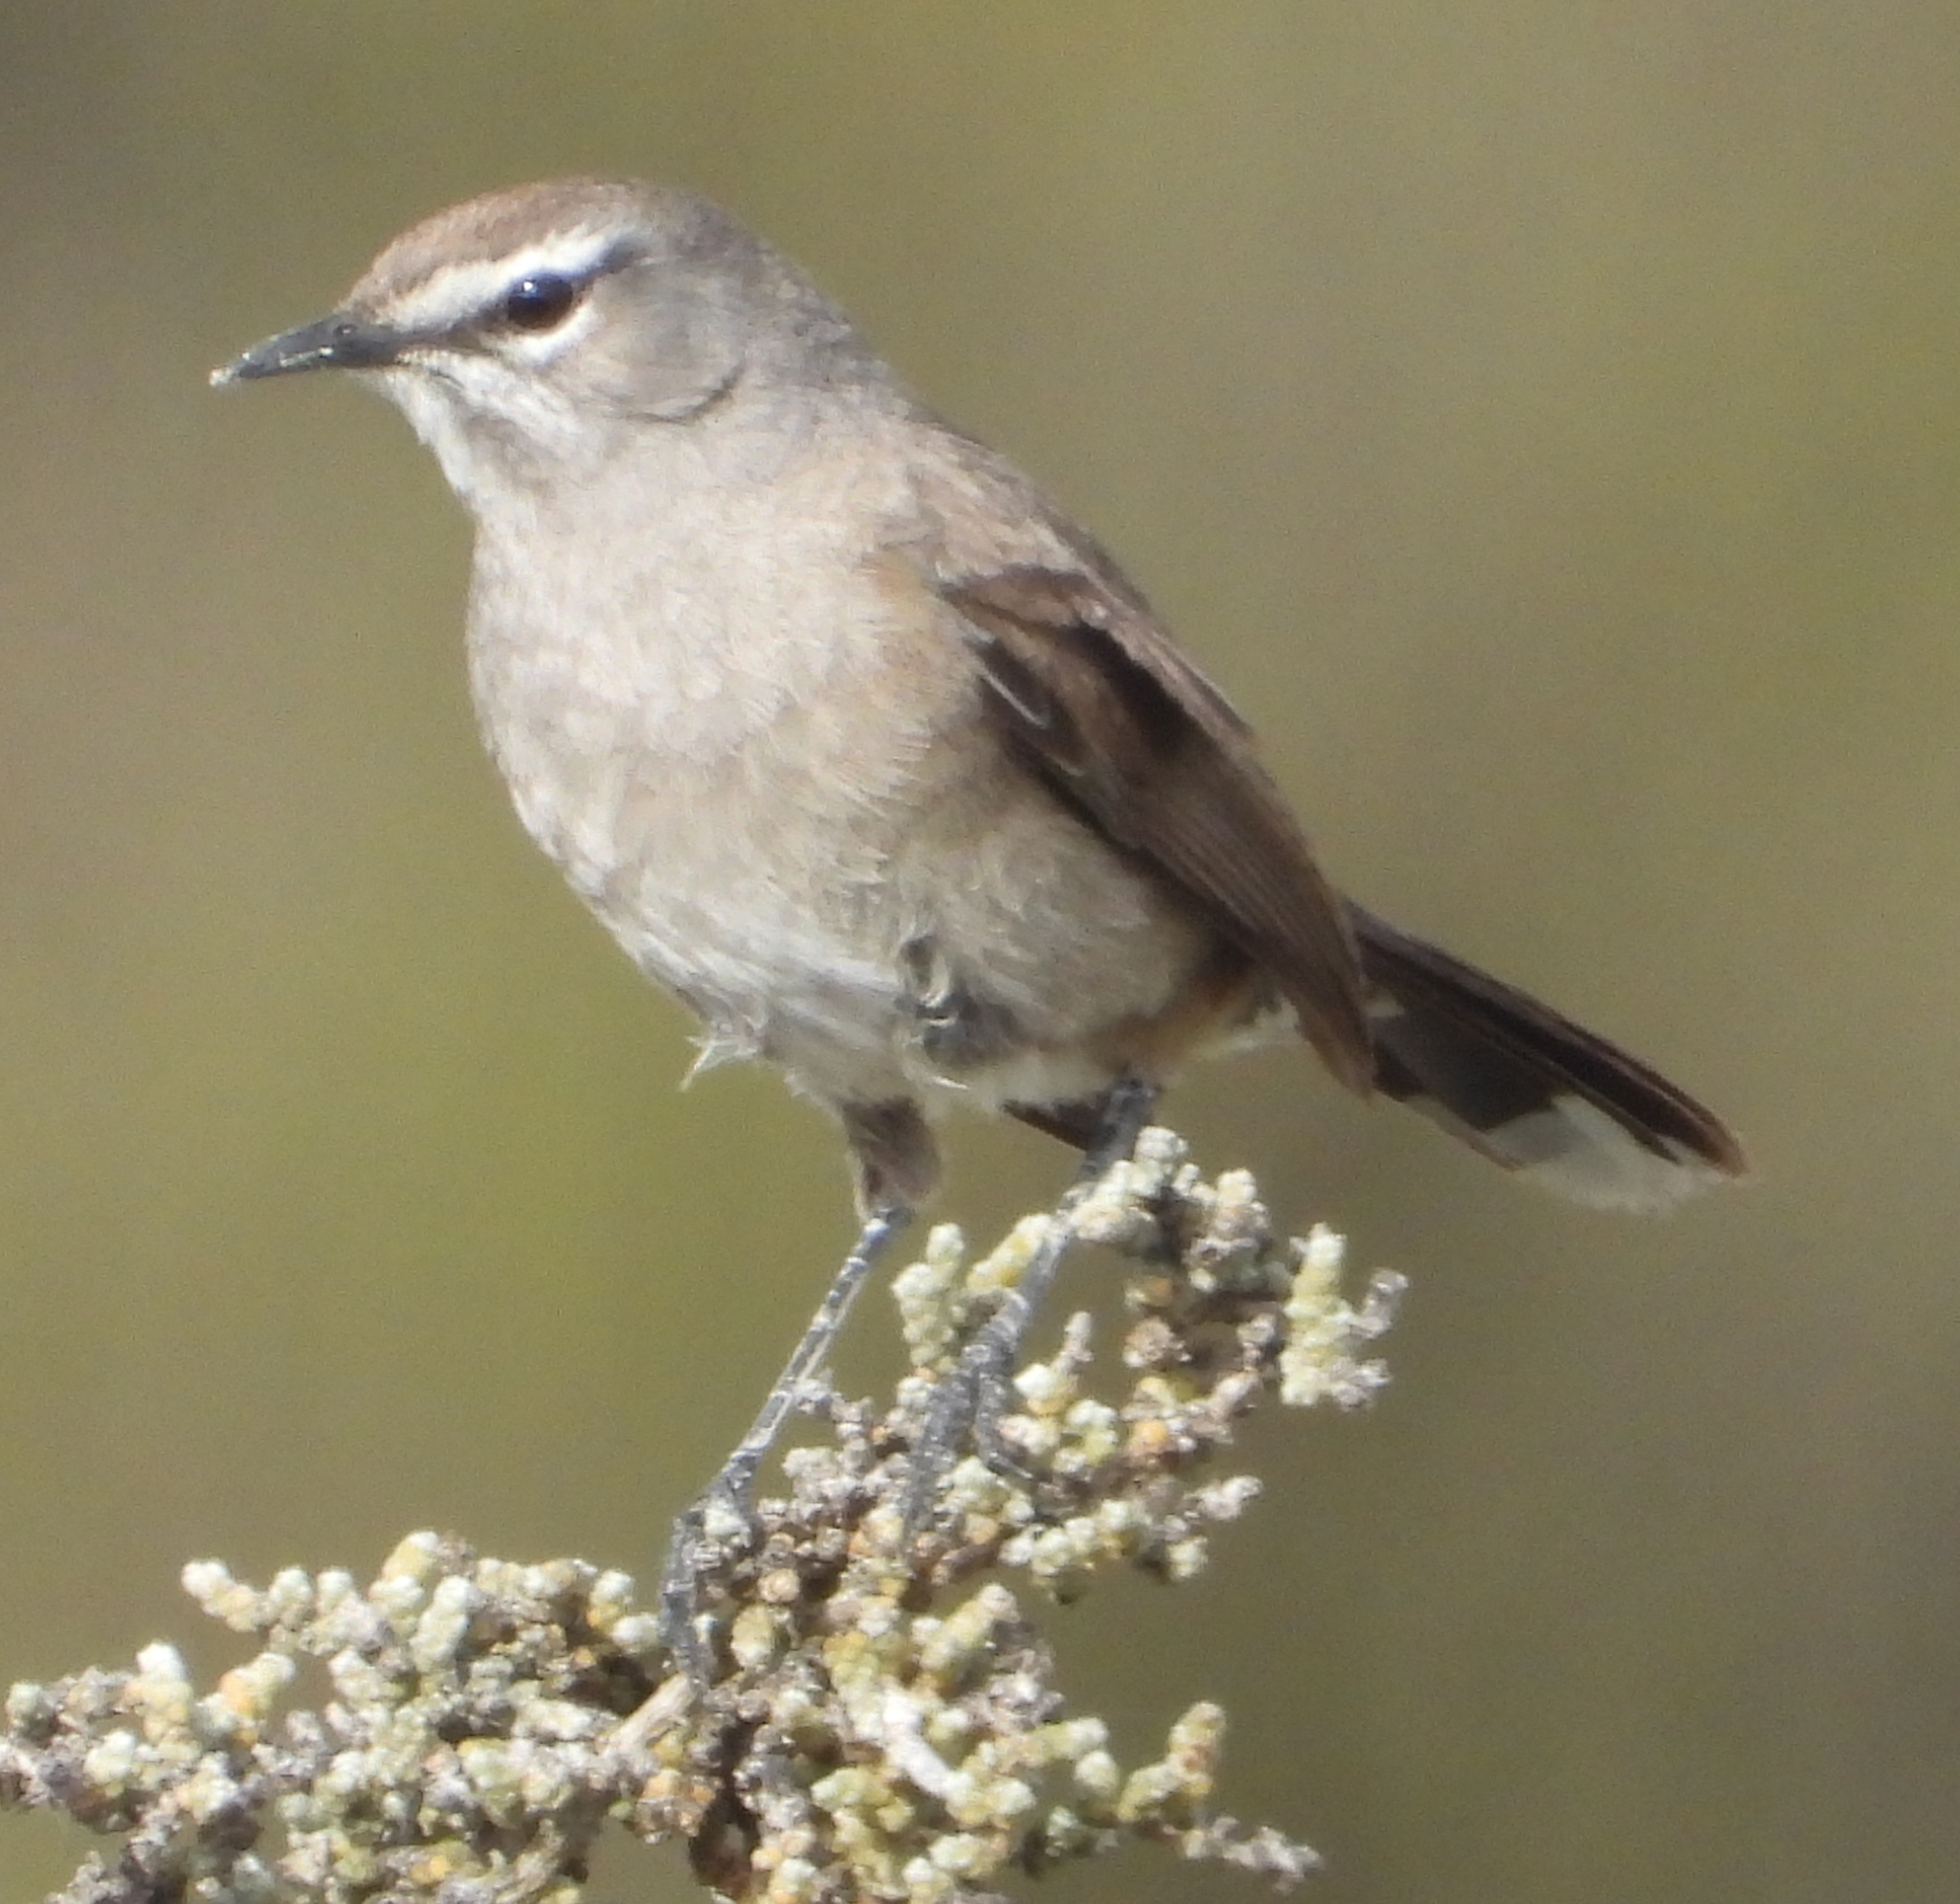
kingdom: Animalia
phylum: Chordata
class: Aves
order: Passeriformes
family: Muscicapidae
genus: Erythropygia
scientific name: Erythropygia coryphoeus
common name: Karoo scrub robin
